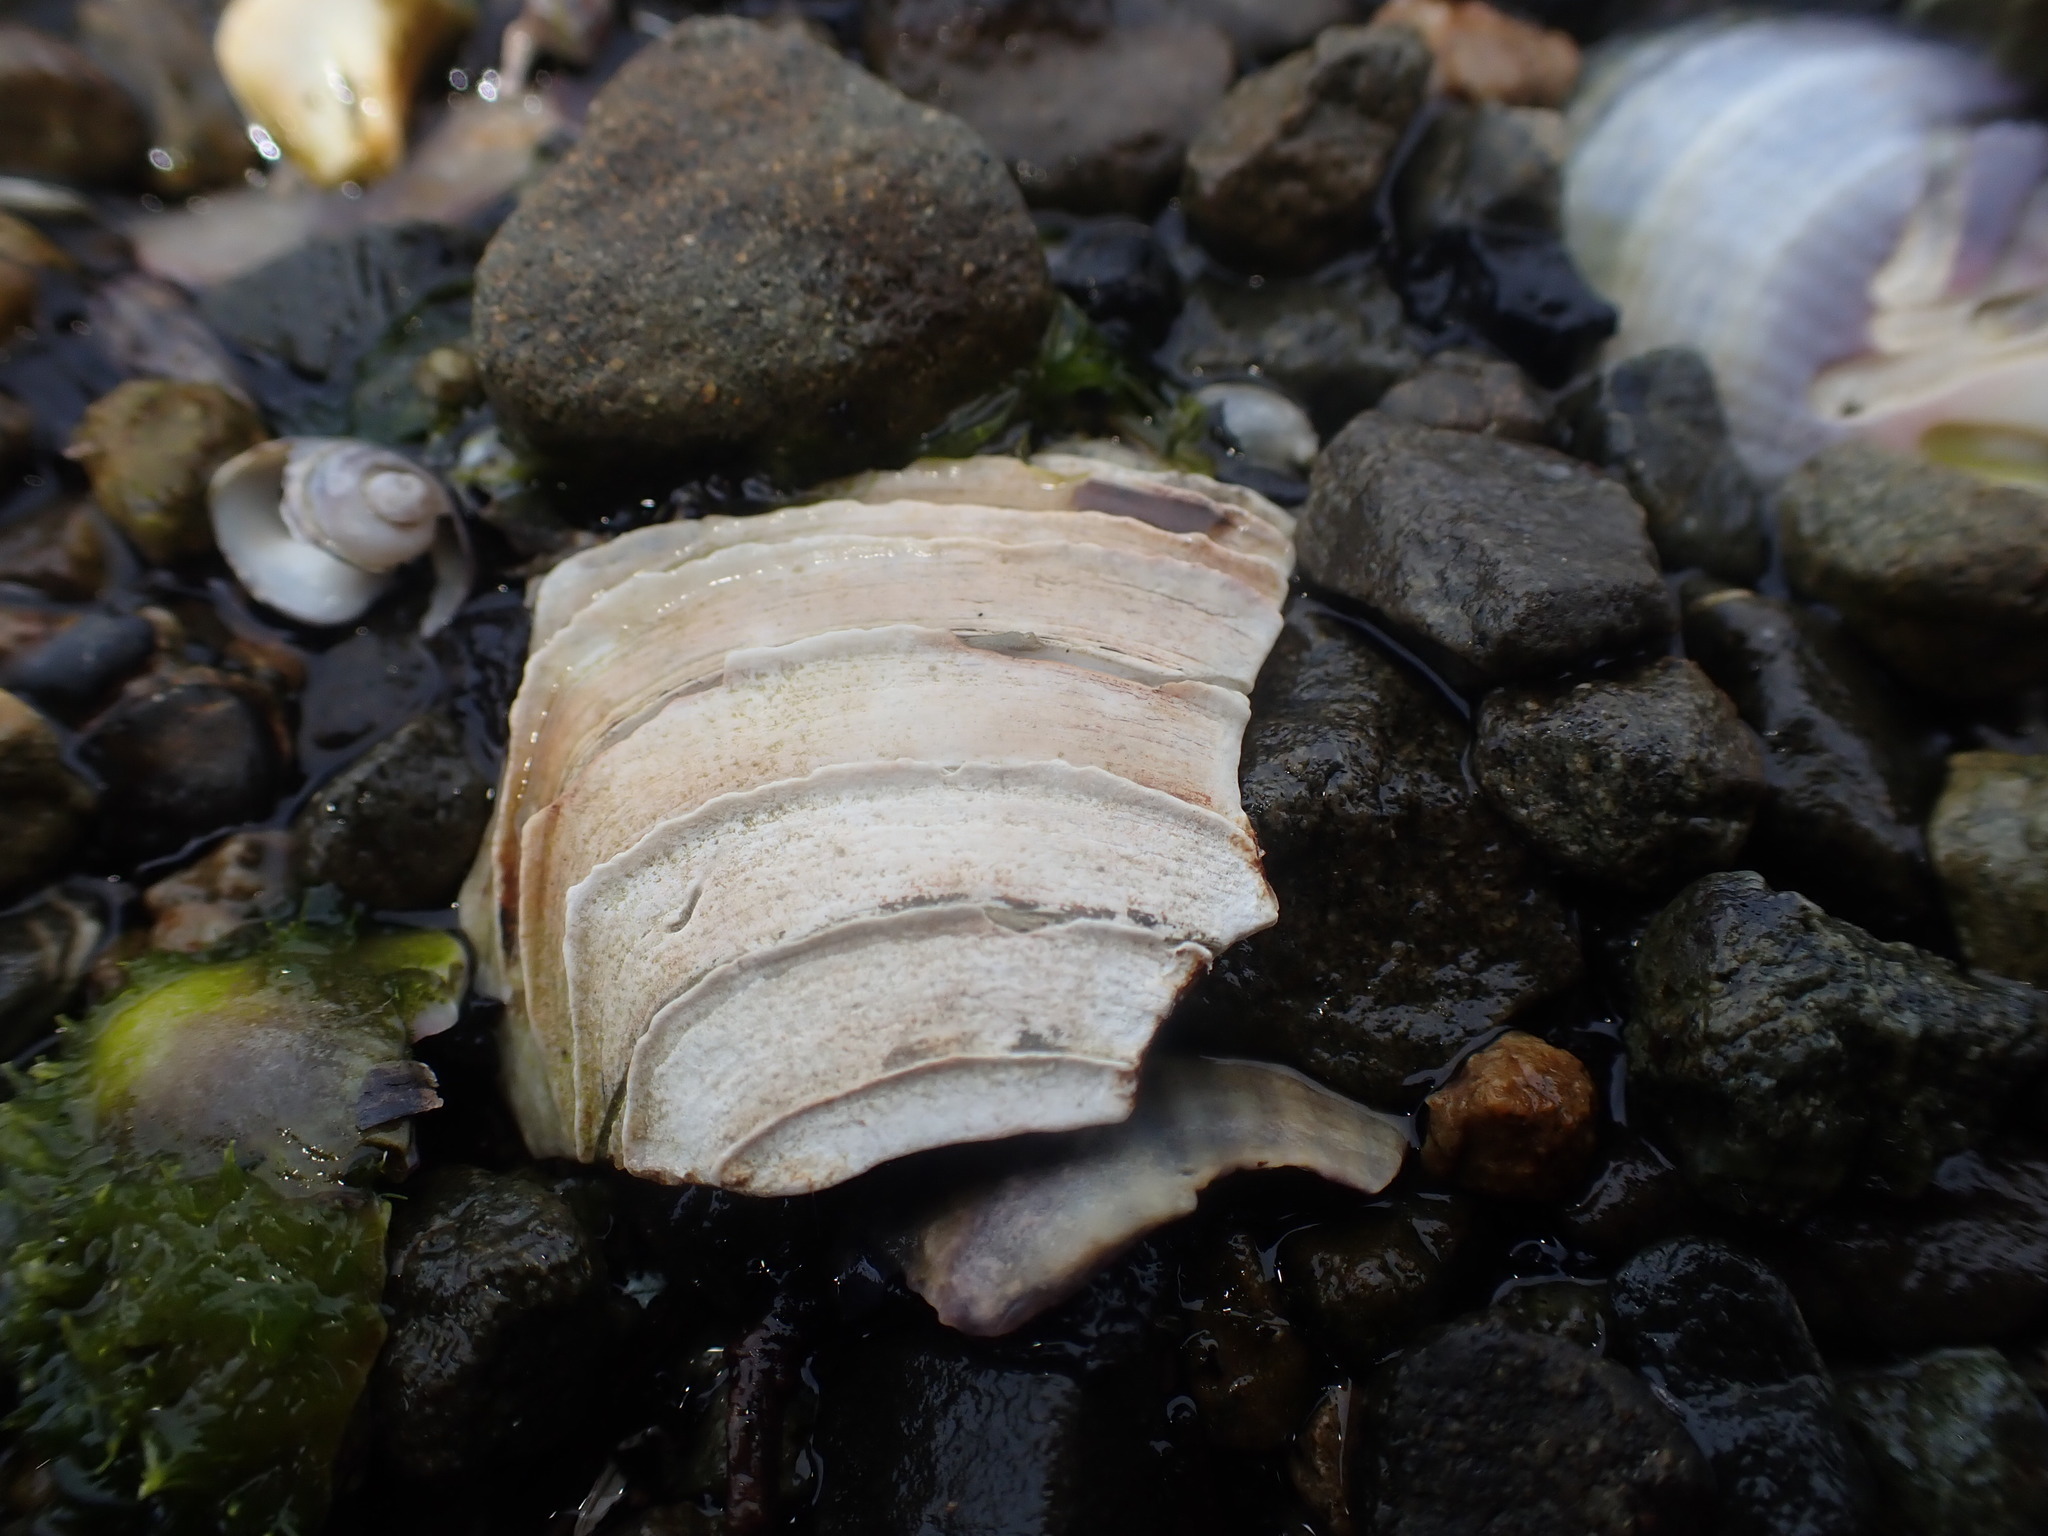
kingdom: Animalia
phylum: Mollusca
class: Bivalvia
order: Venerida
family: Veneridae
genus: Bassina
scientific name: Bassina yatei
